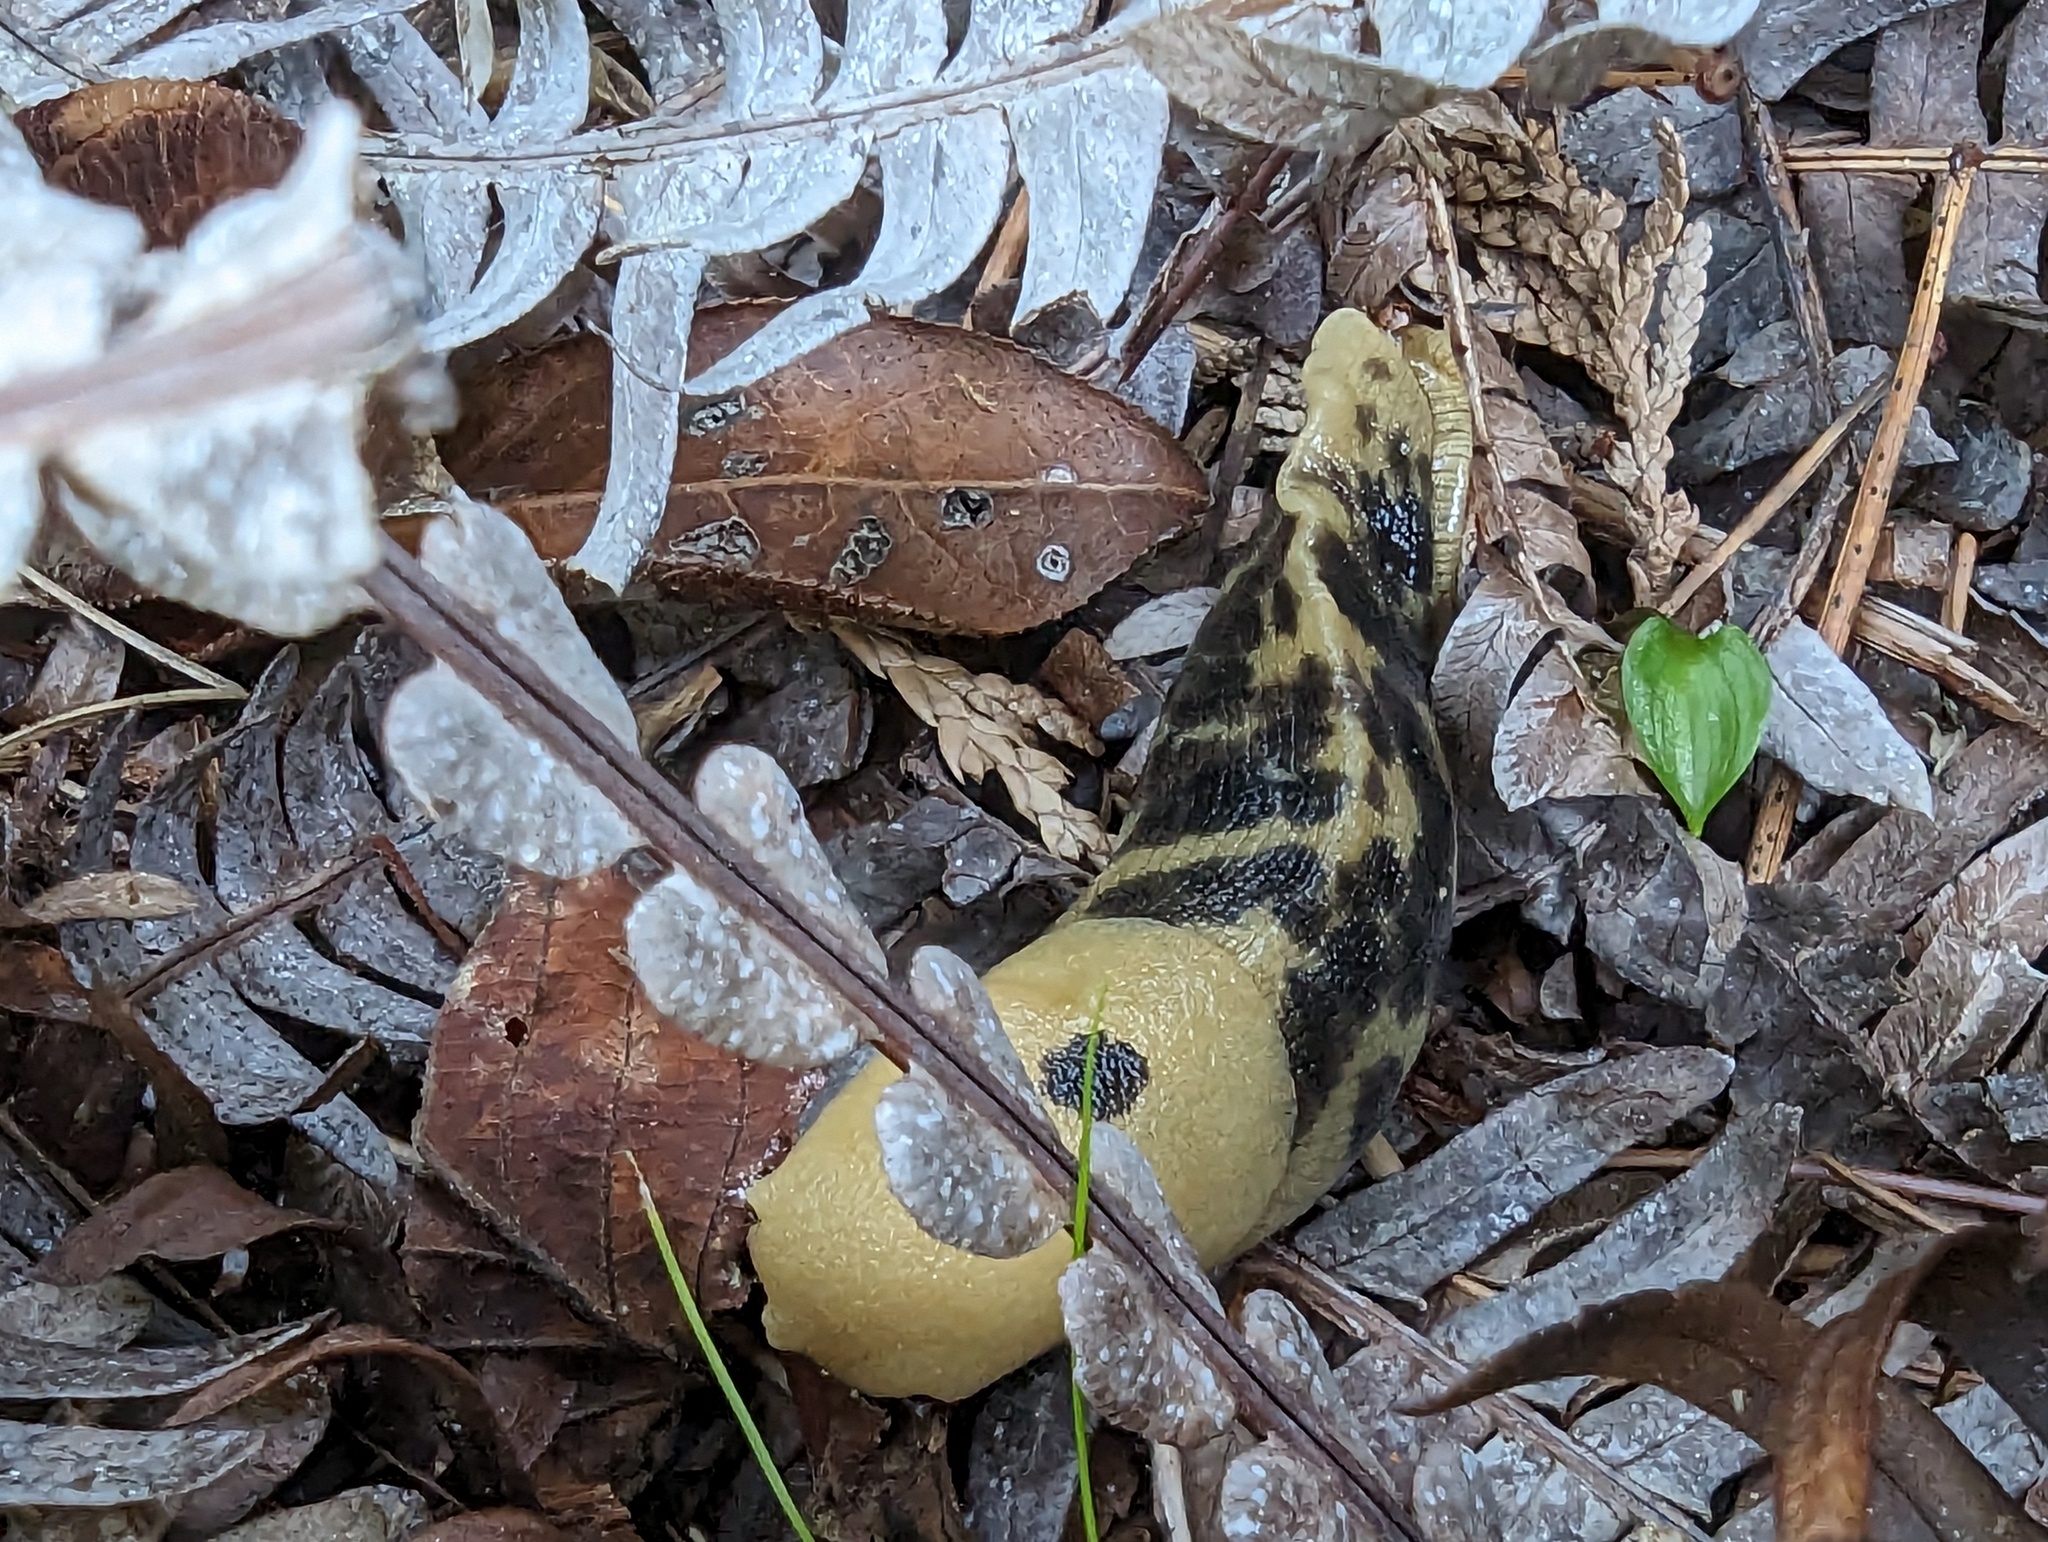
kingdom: Animalia
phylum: Mollusca
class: Gastropoda
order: Stylommatophora
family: Ariolimacidae
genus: Ariolimax
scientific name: Ariolimax columbianus
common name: Pacific banana slug
